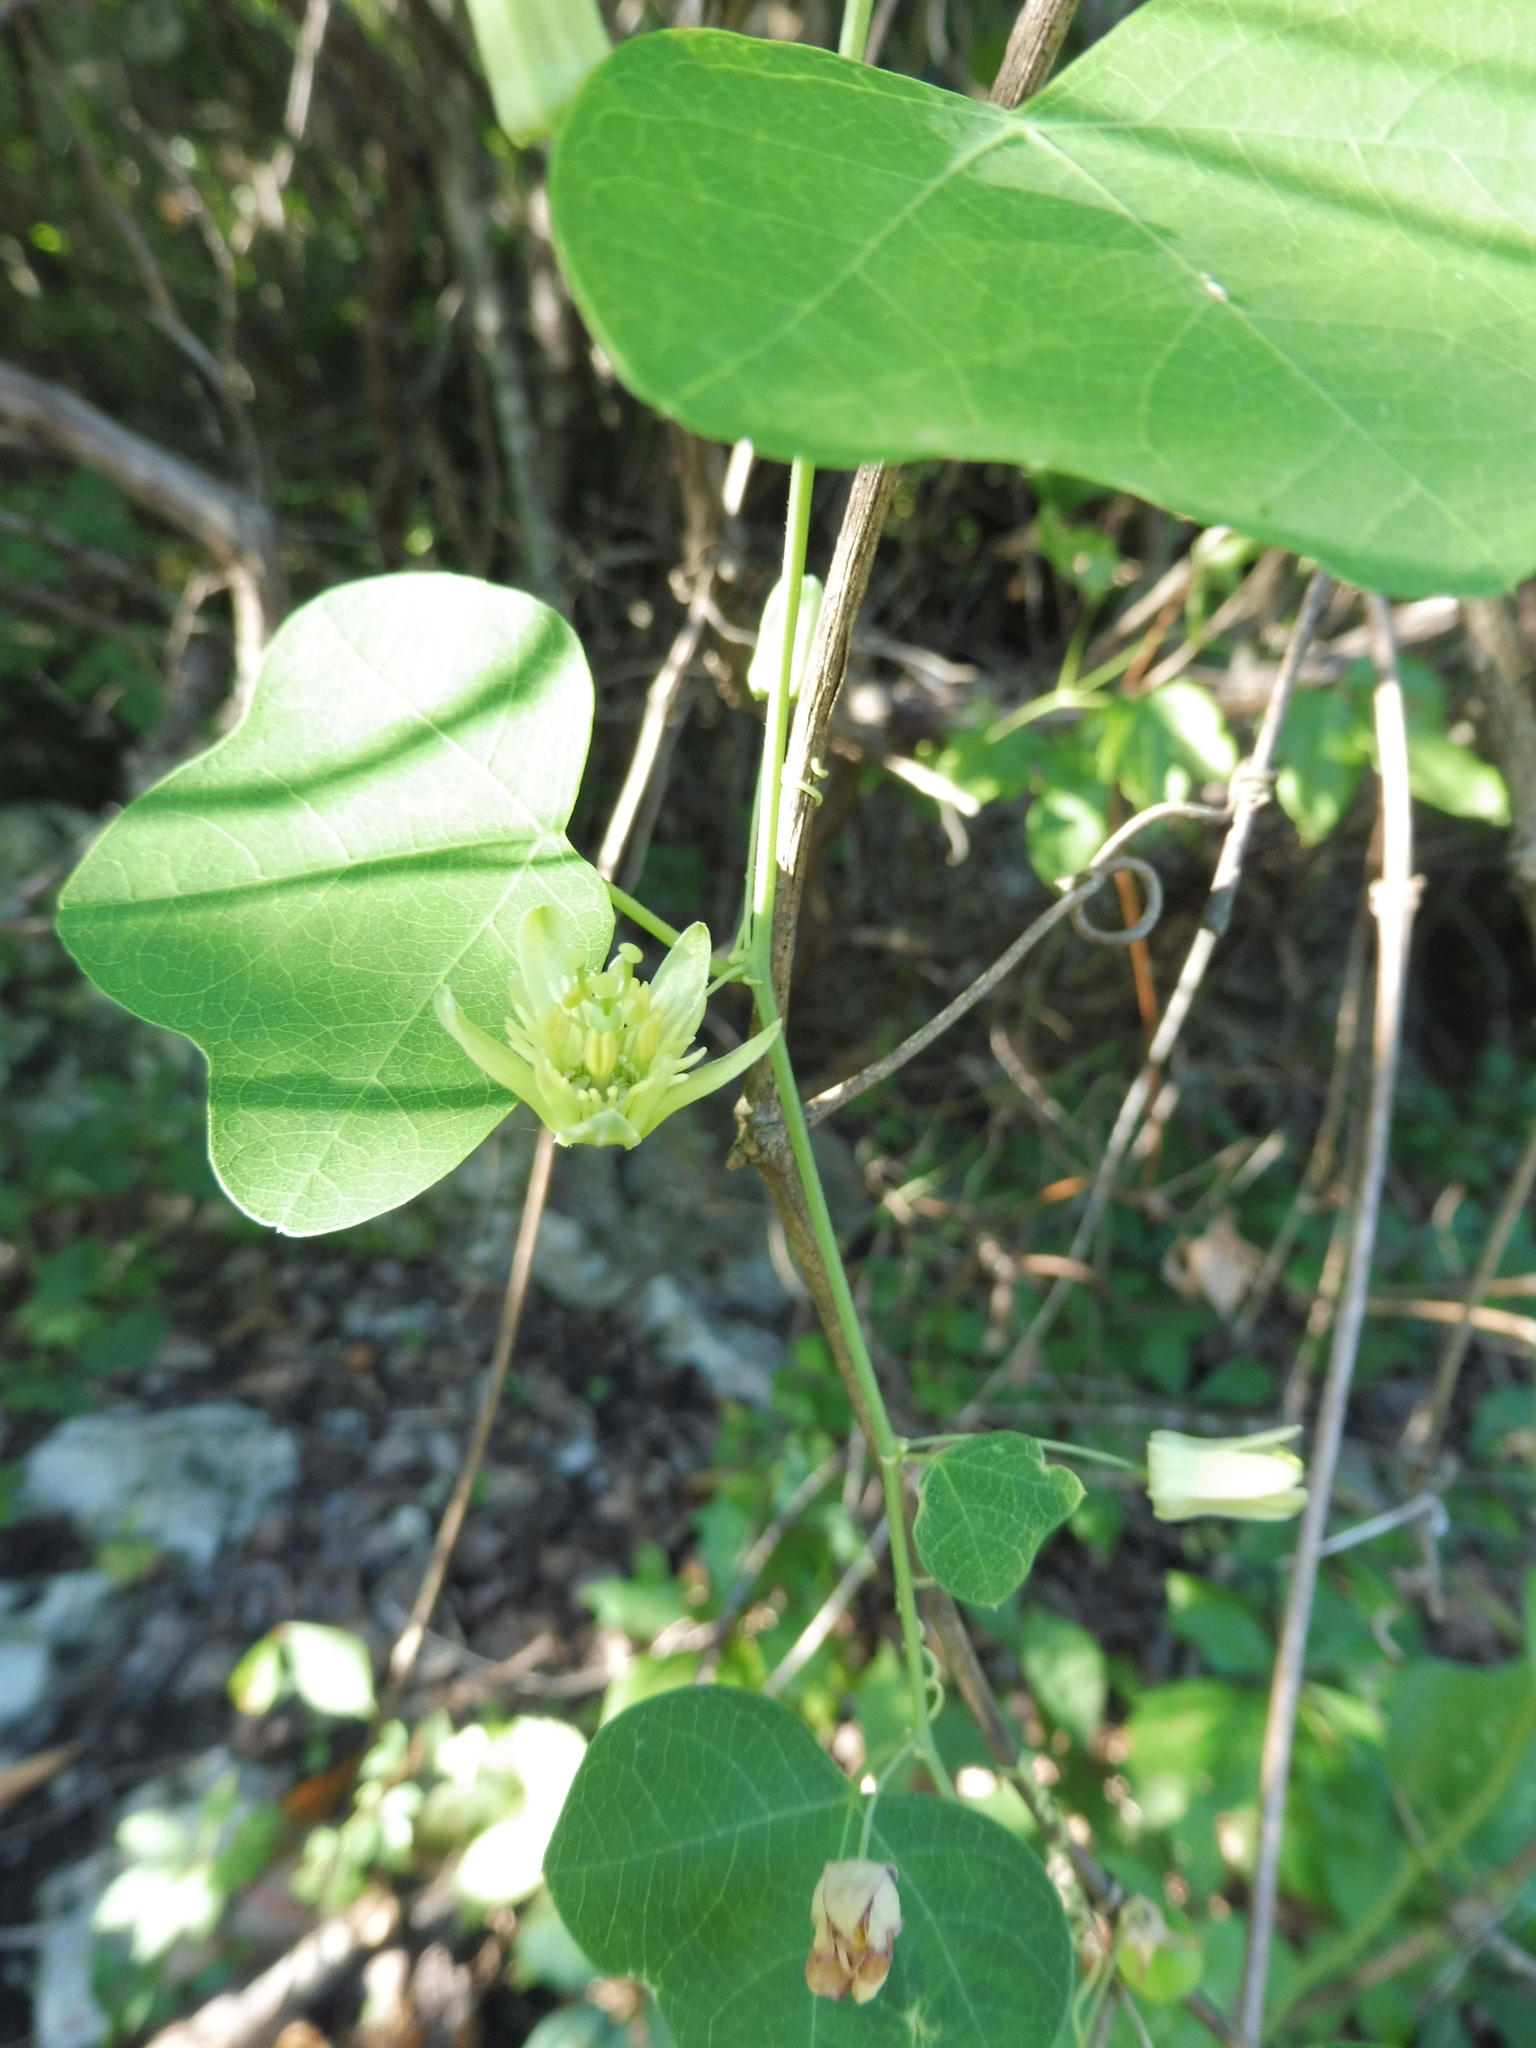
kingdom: Plantae
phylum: Tracheophyta
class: Magnoliopsida
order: Malpighiales
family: Passifloraceae
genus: Passiflora
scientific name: Passiflora lutea
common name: Yellow passionflower
